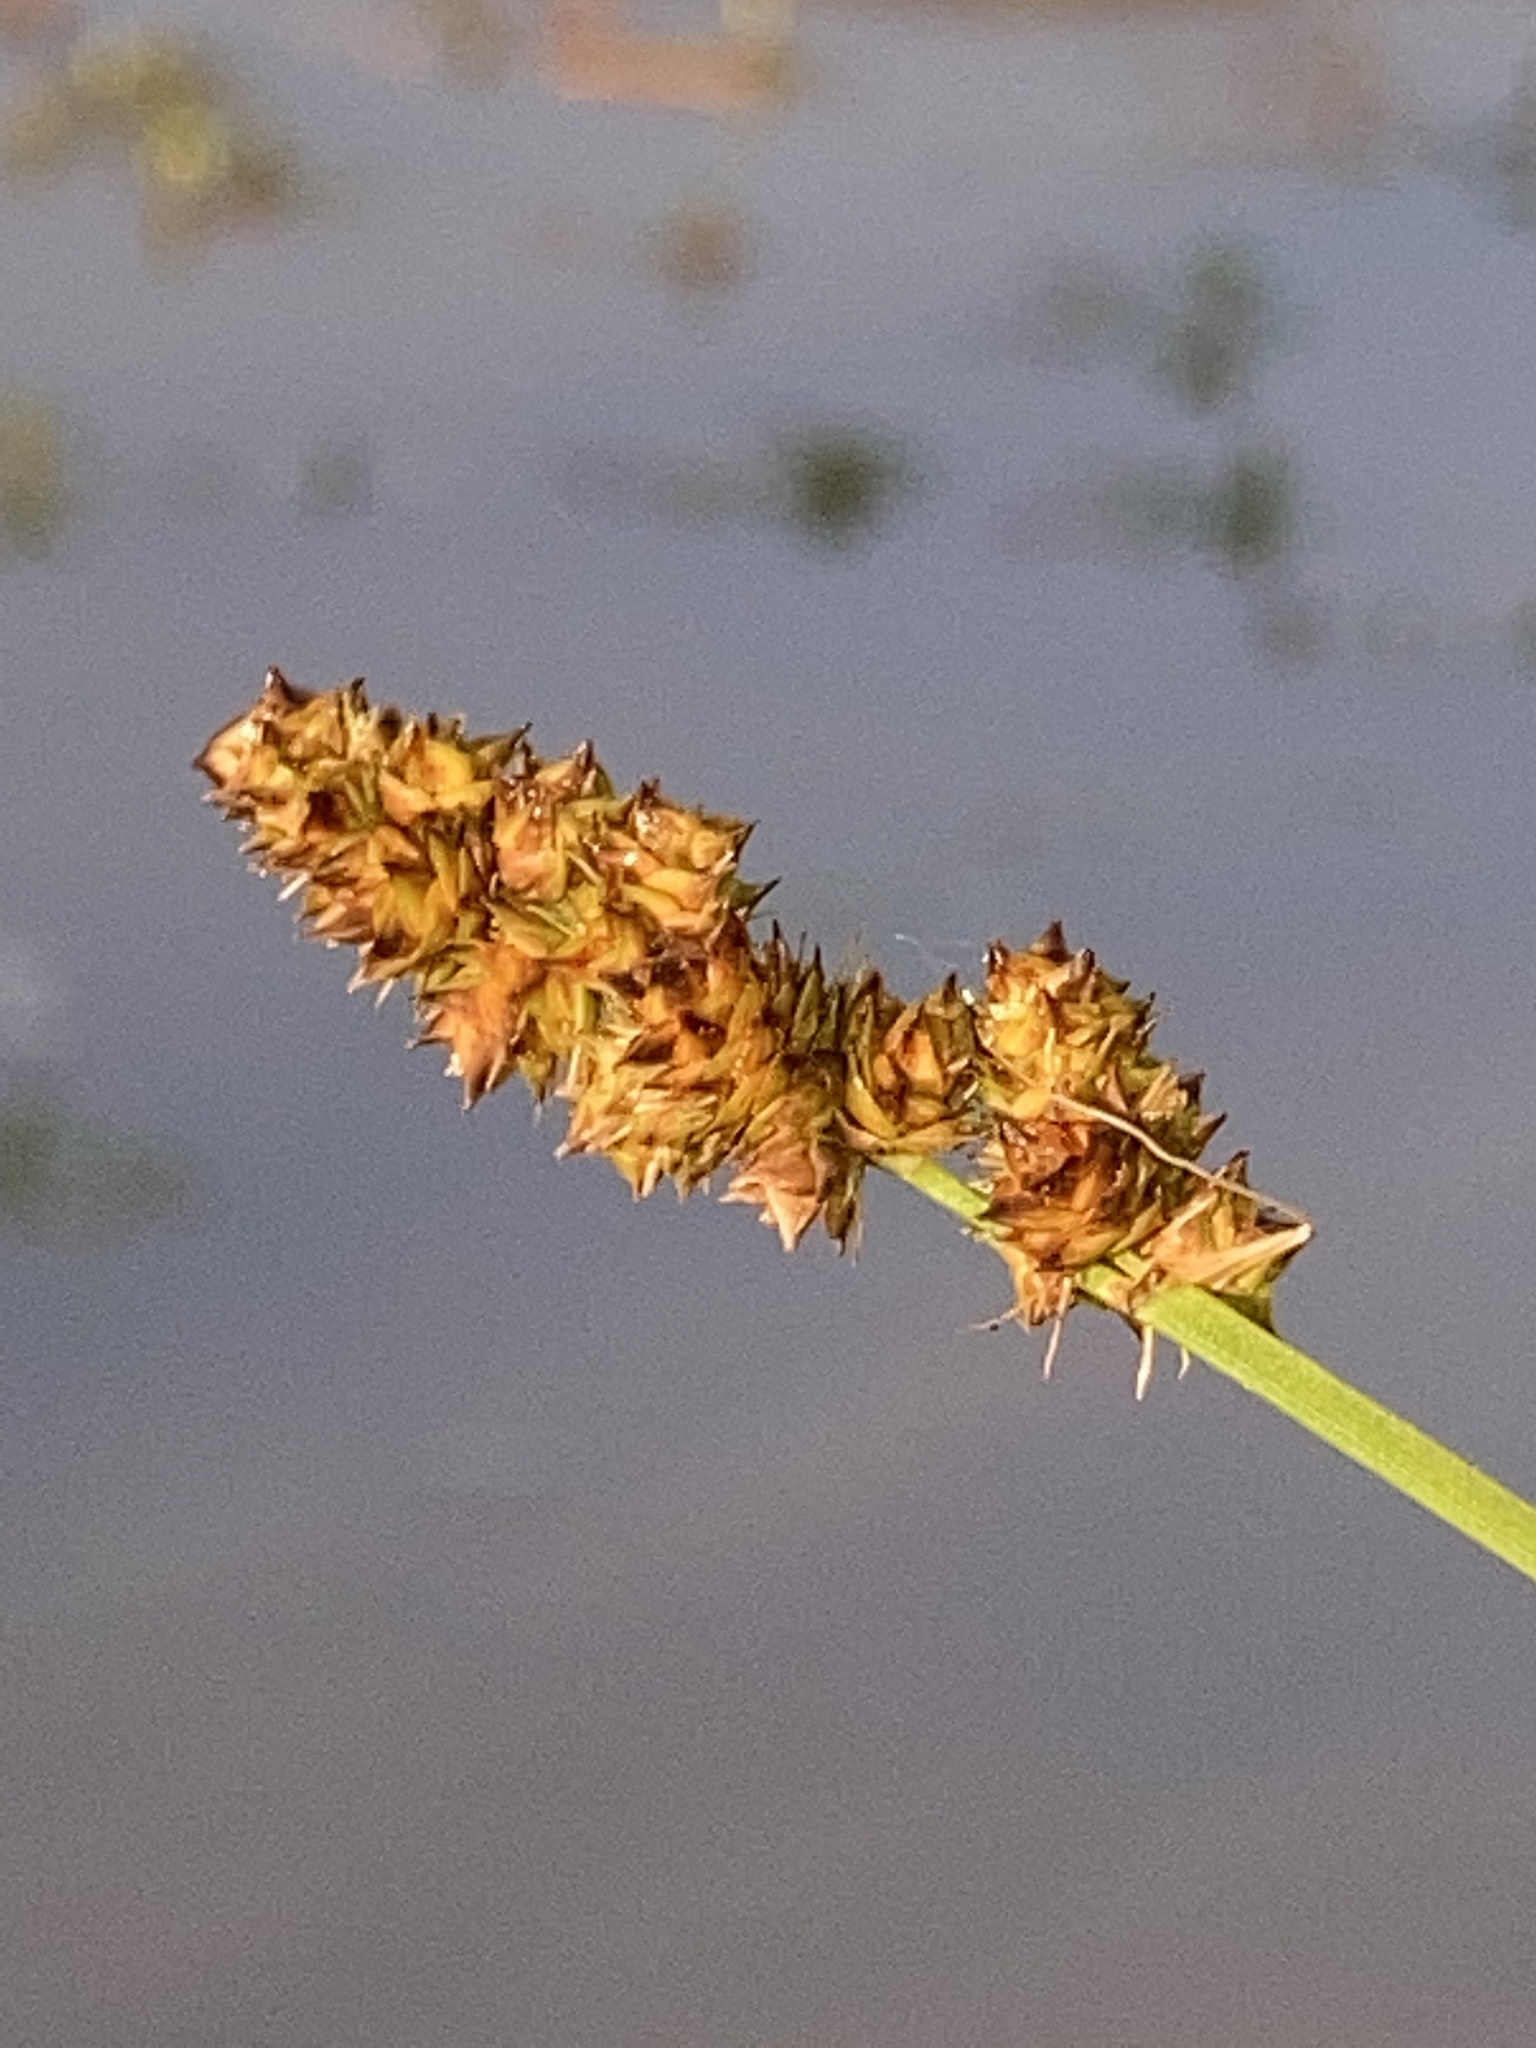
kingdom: Plantae
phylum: Tracheophyta
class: Liliopsida
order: Poales
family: Cyperaceae
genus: Carex
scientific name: Carex annectens
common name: Large fox sedge
